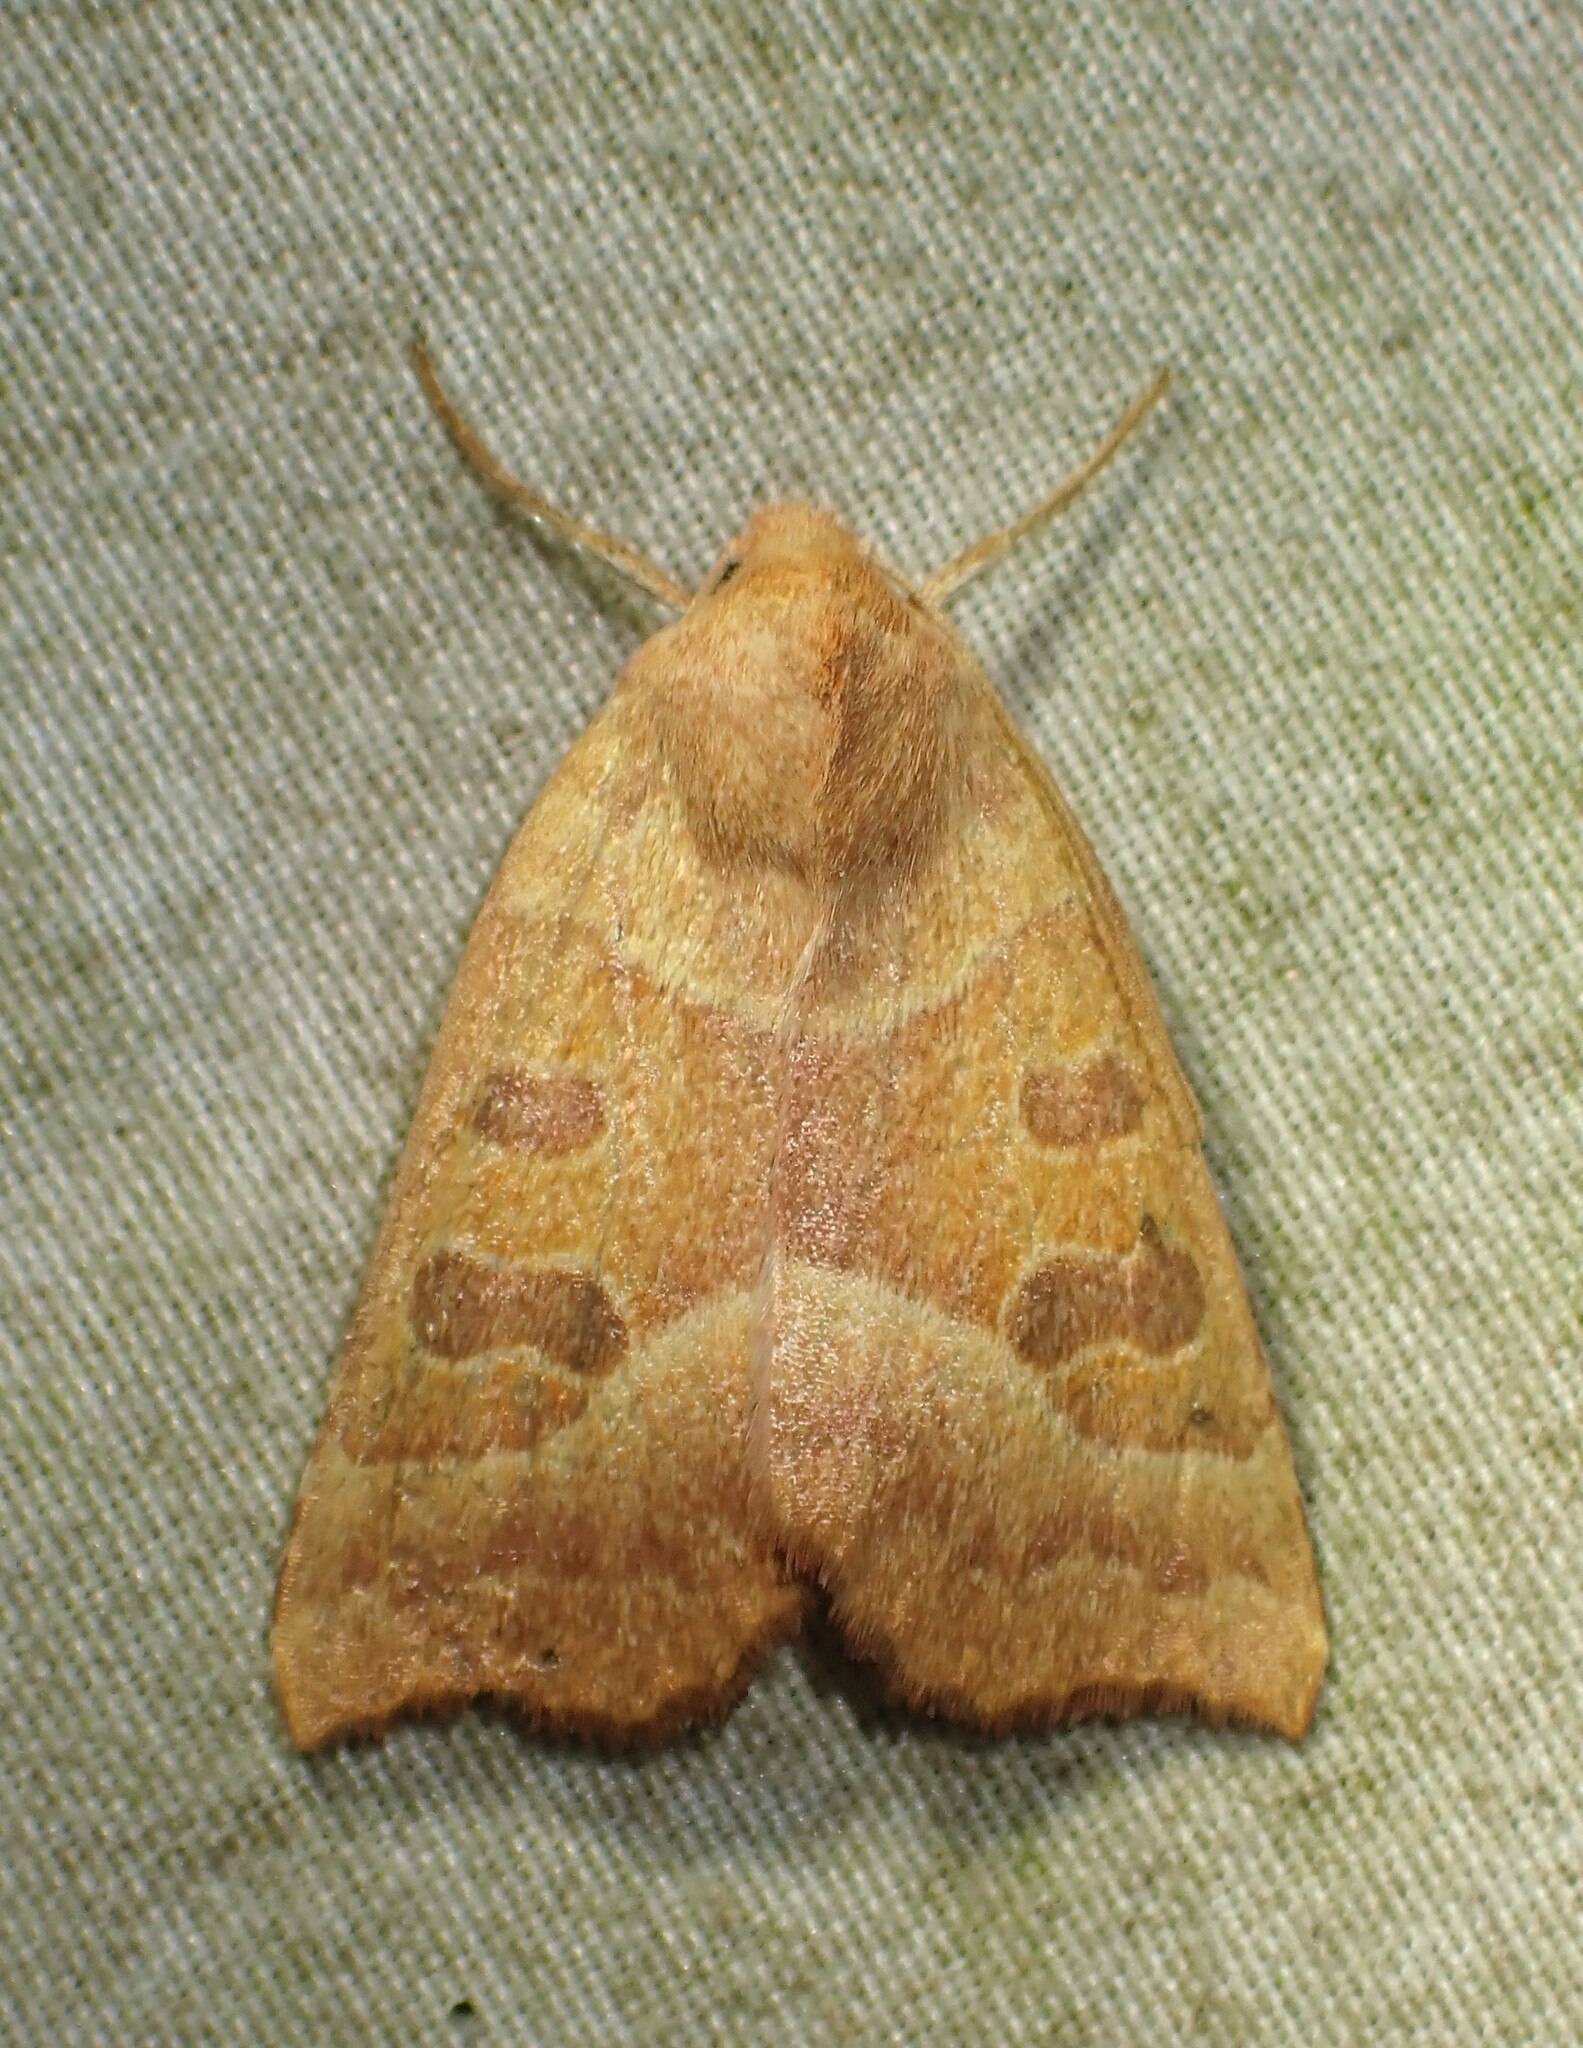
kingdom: Animalia
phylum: Arthropoda
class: Insecta
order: Lepidoptera
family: Noctuidae
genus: Eucirroedia
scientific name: Eucirroedia pampina
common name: Scalloped sallow
